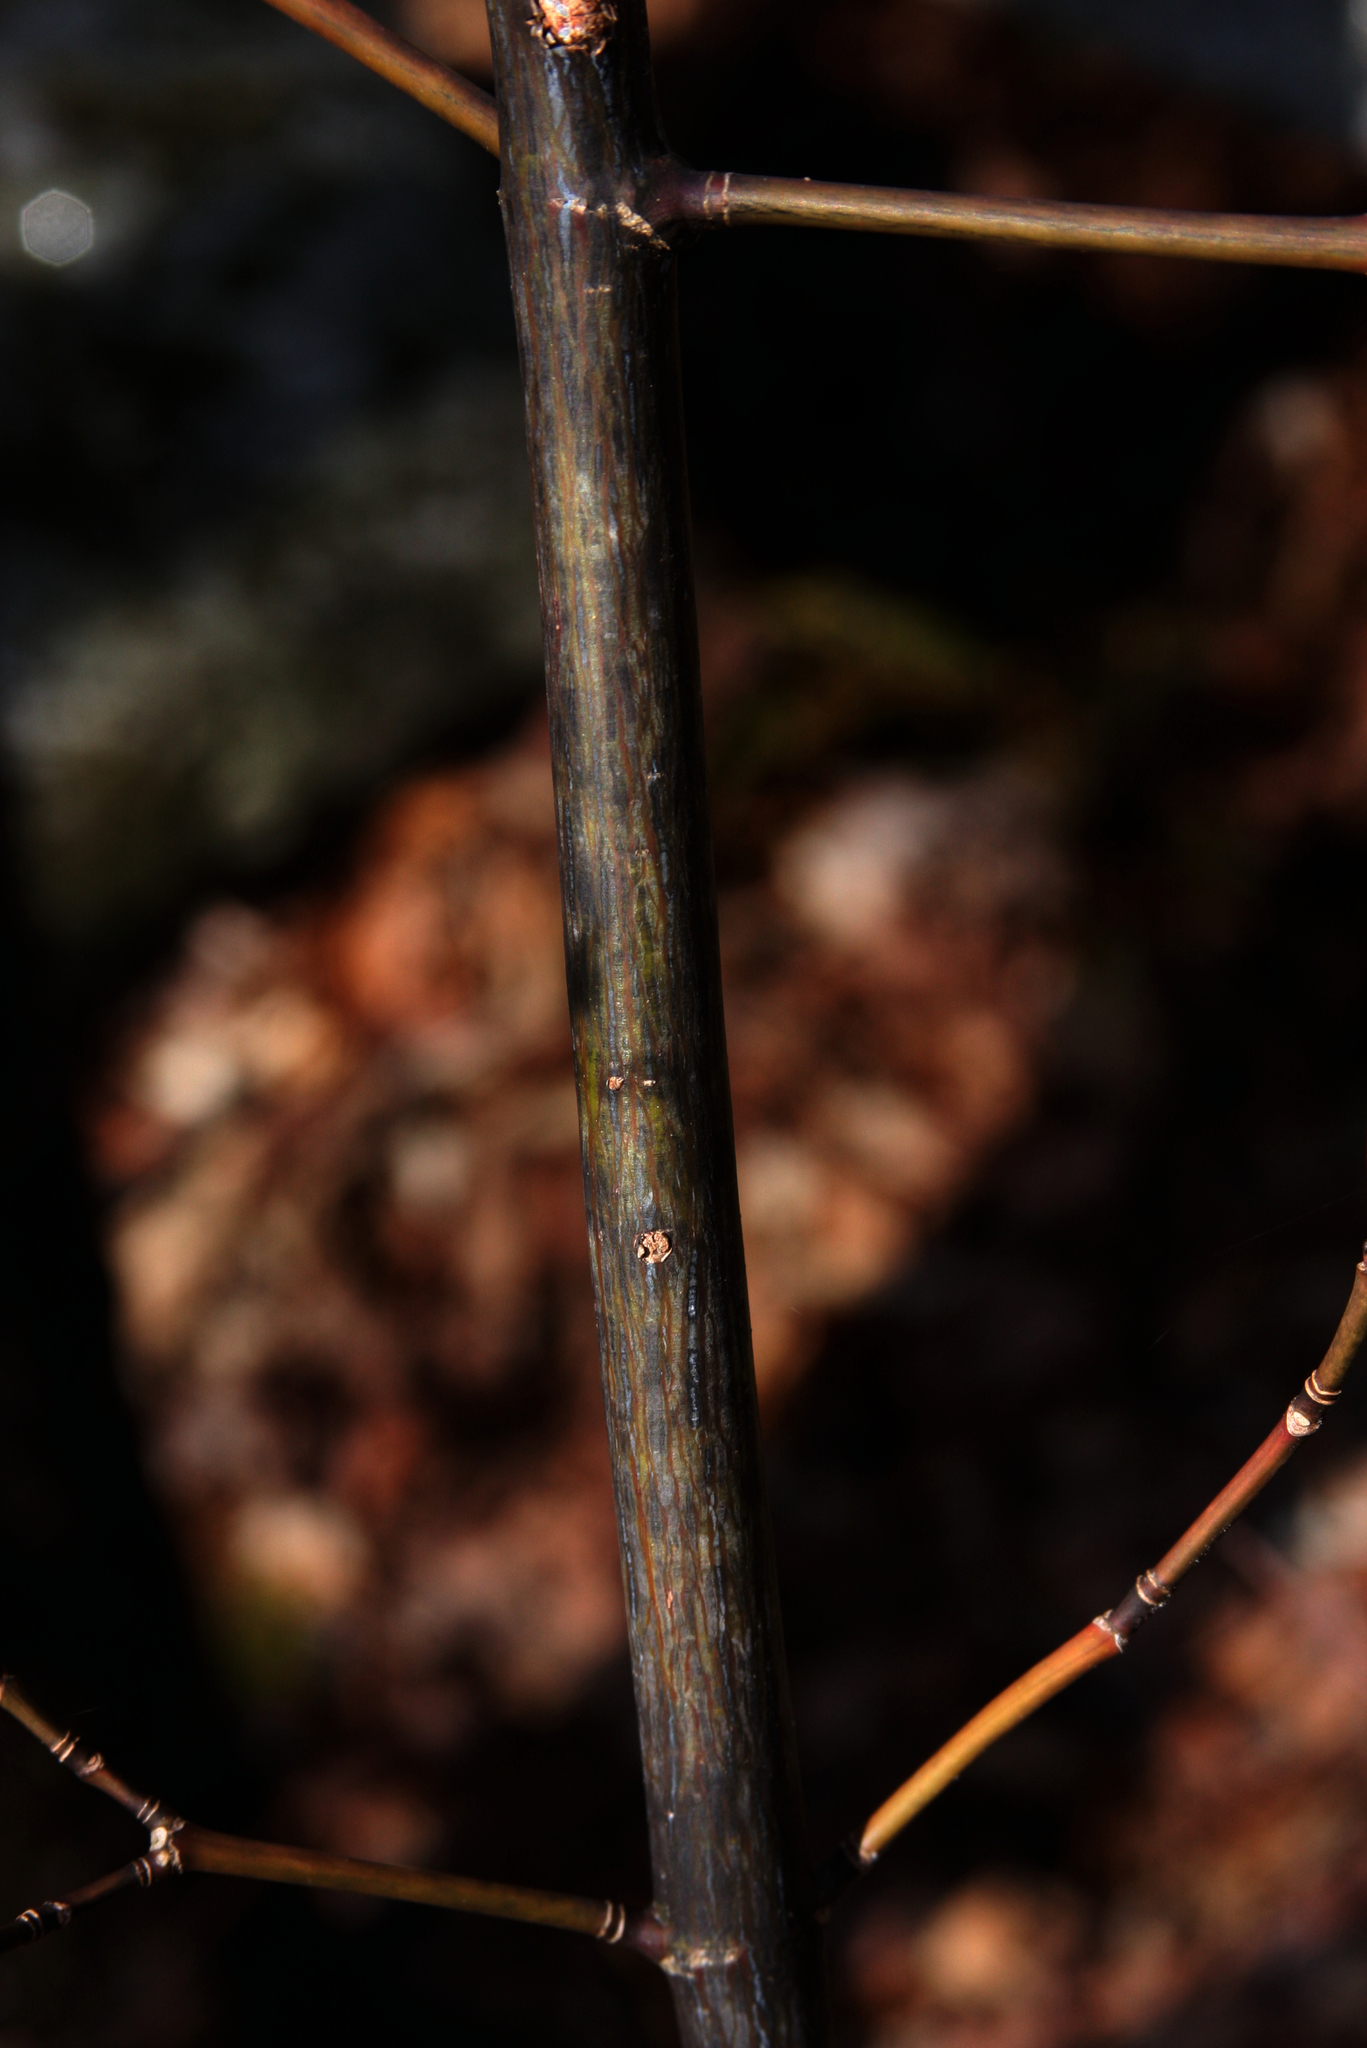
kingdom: Plantae
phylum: Tracheophyta
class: Magnoliopsida
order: Sapindales
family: Sapindaceae
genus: Acer
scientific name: Acer pensylvanicum
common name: Moosewood
